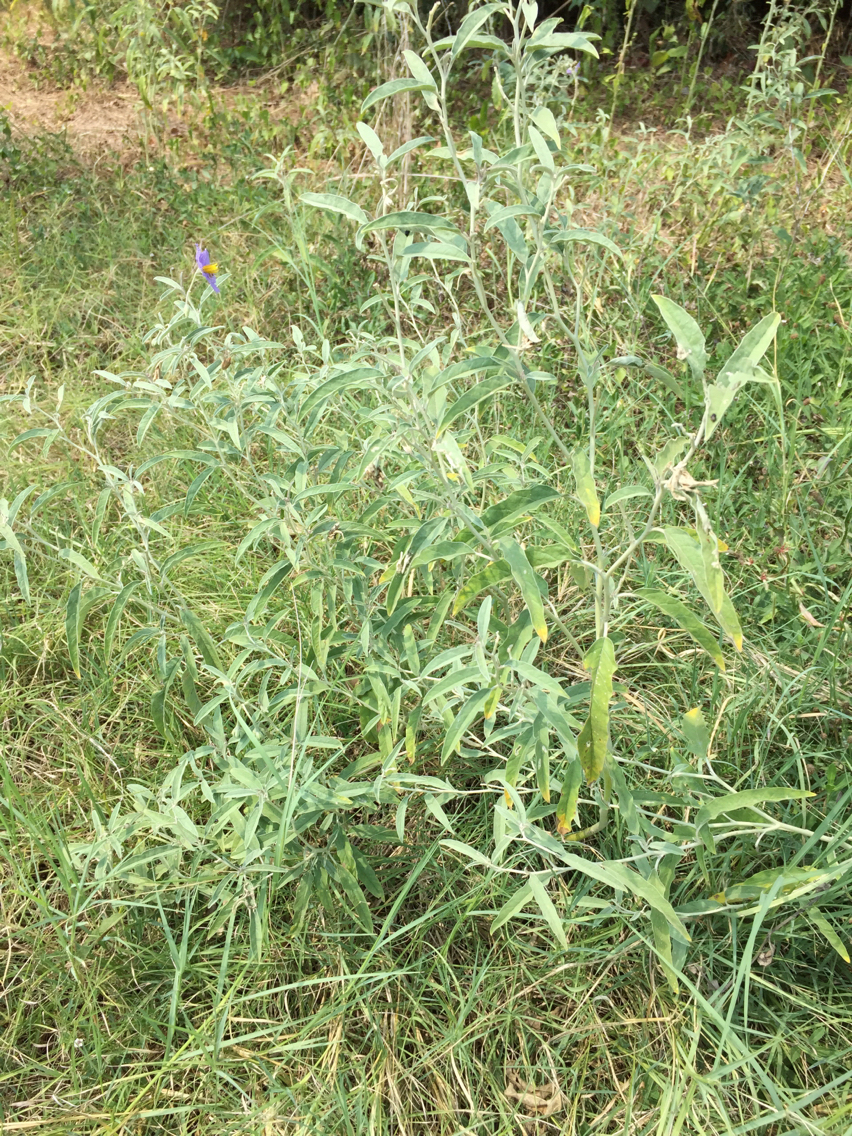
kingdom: Plantae
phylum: Tracheophyta
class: Magnoliopsida
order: Solanales
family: Solanaceae
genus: Solanum
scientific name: Solanum elaeagnifolium
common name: Silverleaf nightshade
